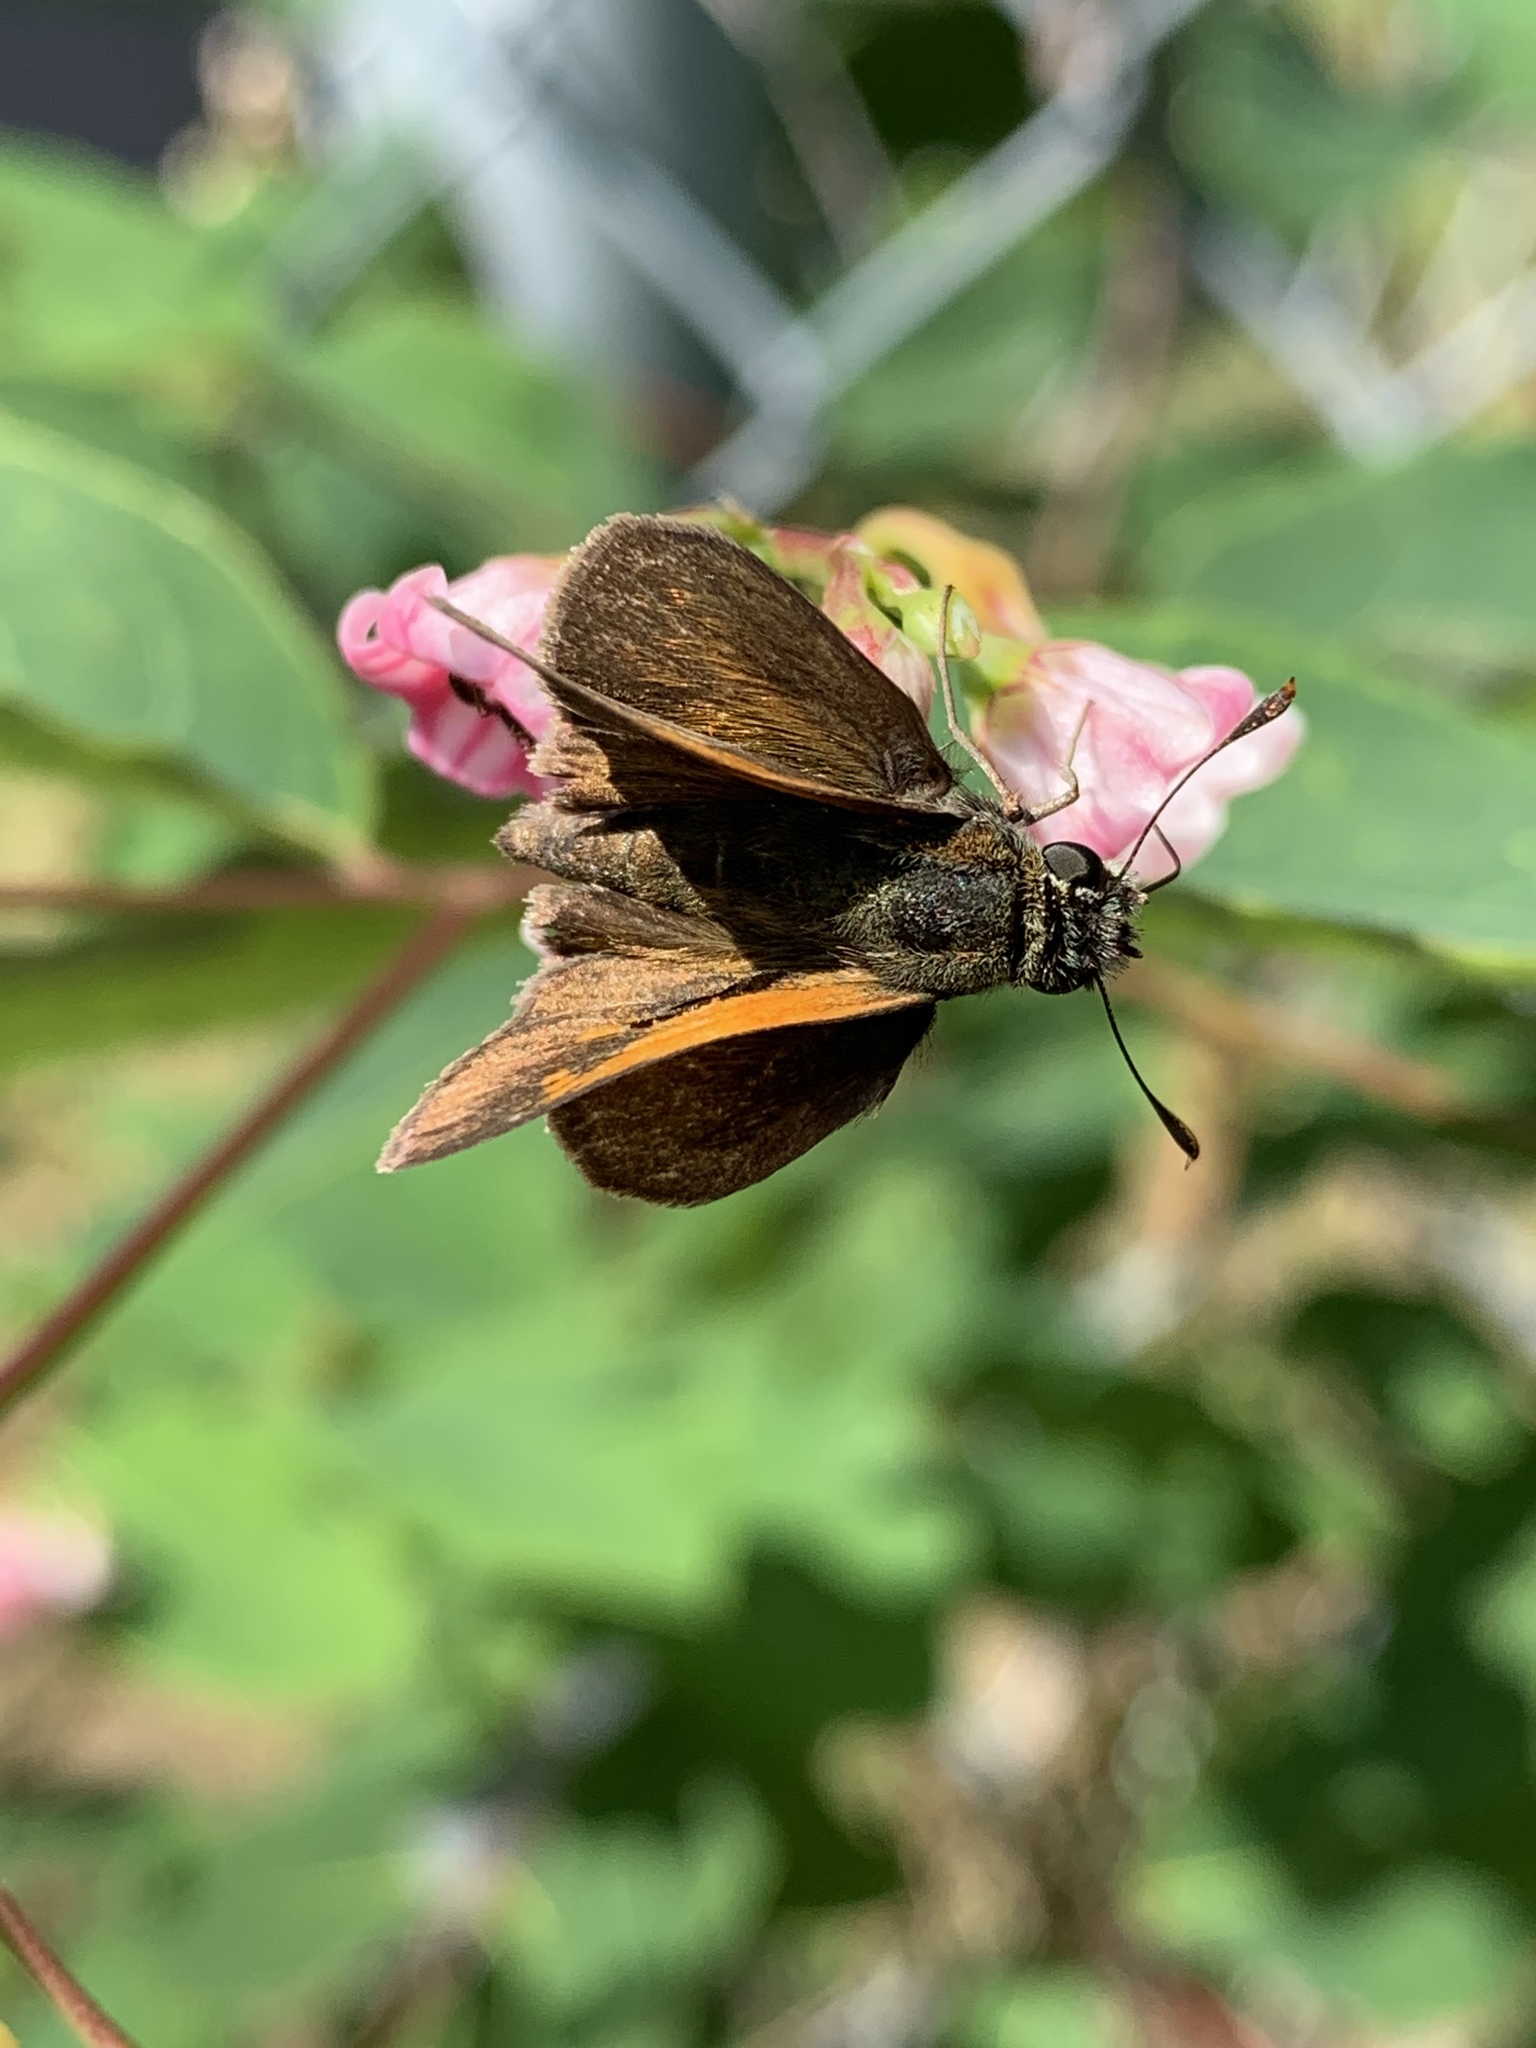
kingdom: Animalia
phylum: Arthropoda
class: Insecta
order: Lepidoptera
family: Hesperiidae
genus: Polites
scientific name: Polites themistocles
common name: Tawny-edged skipper
